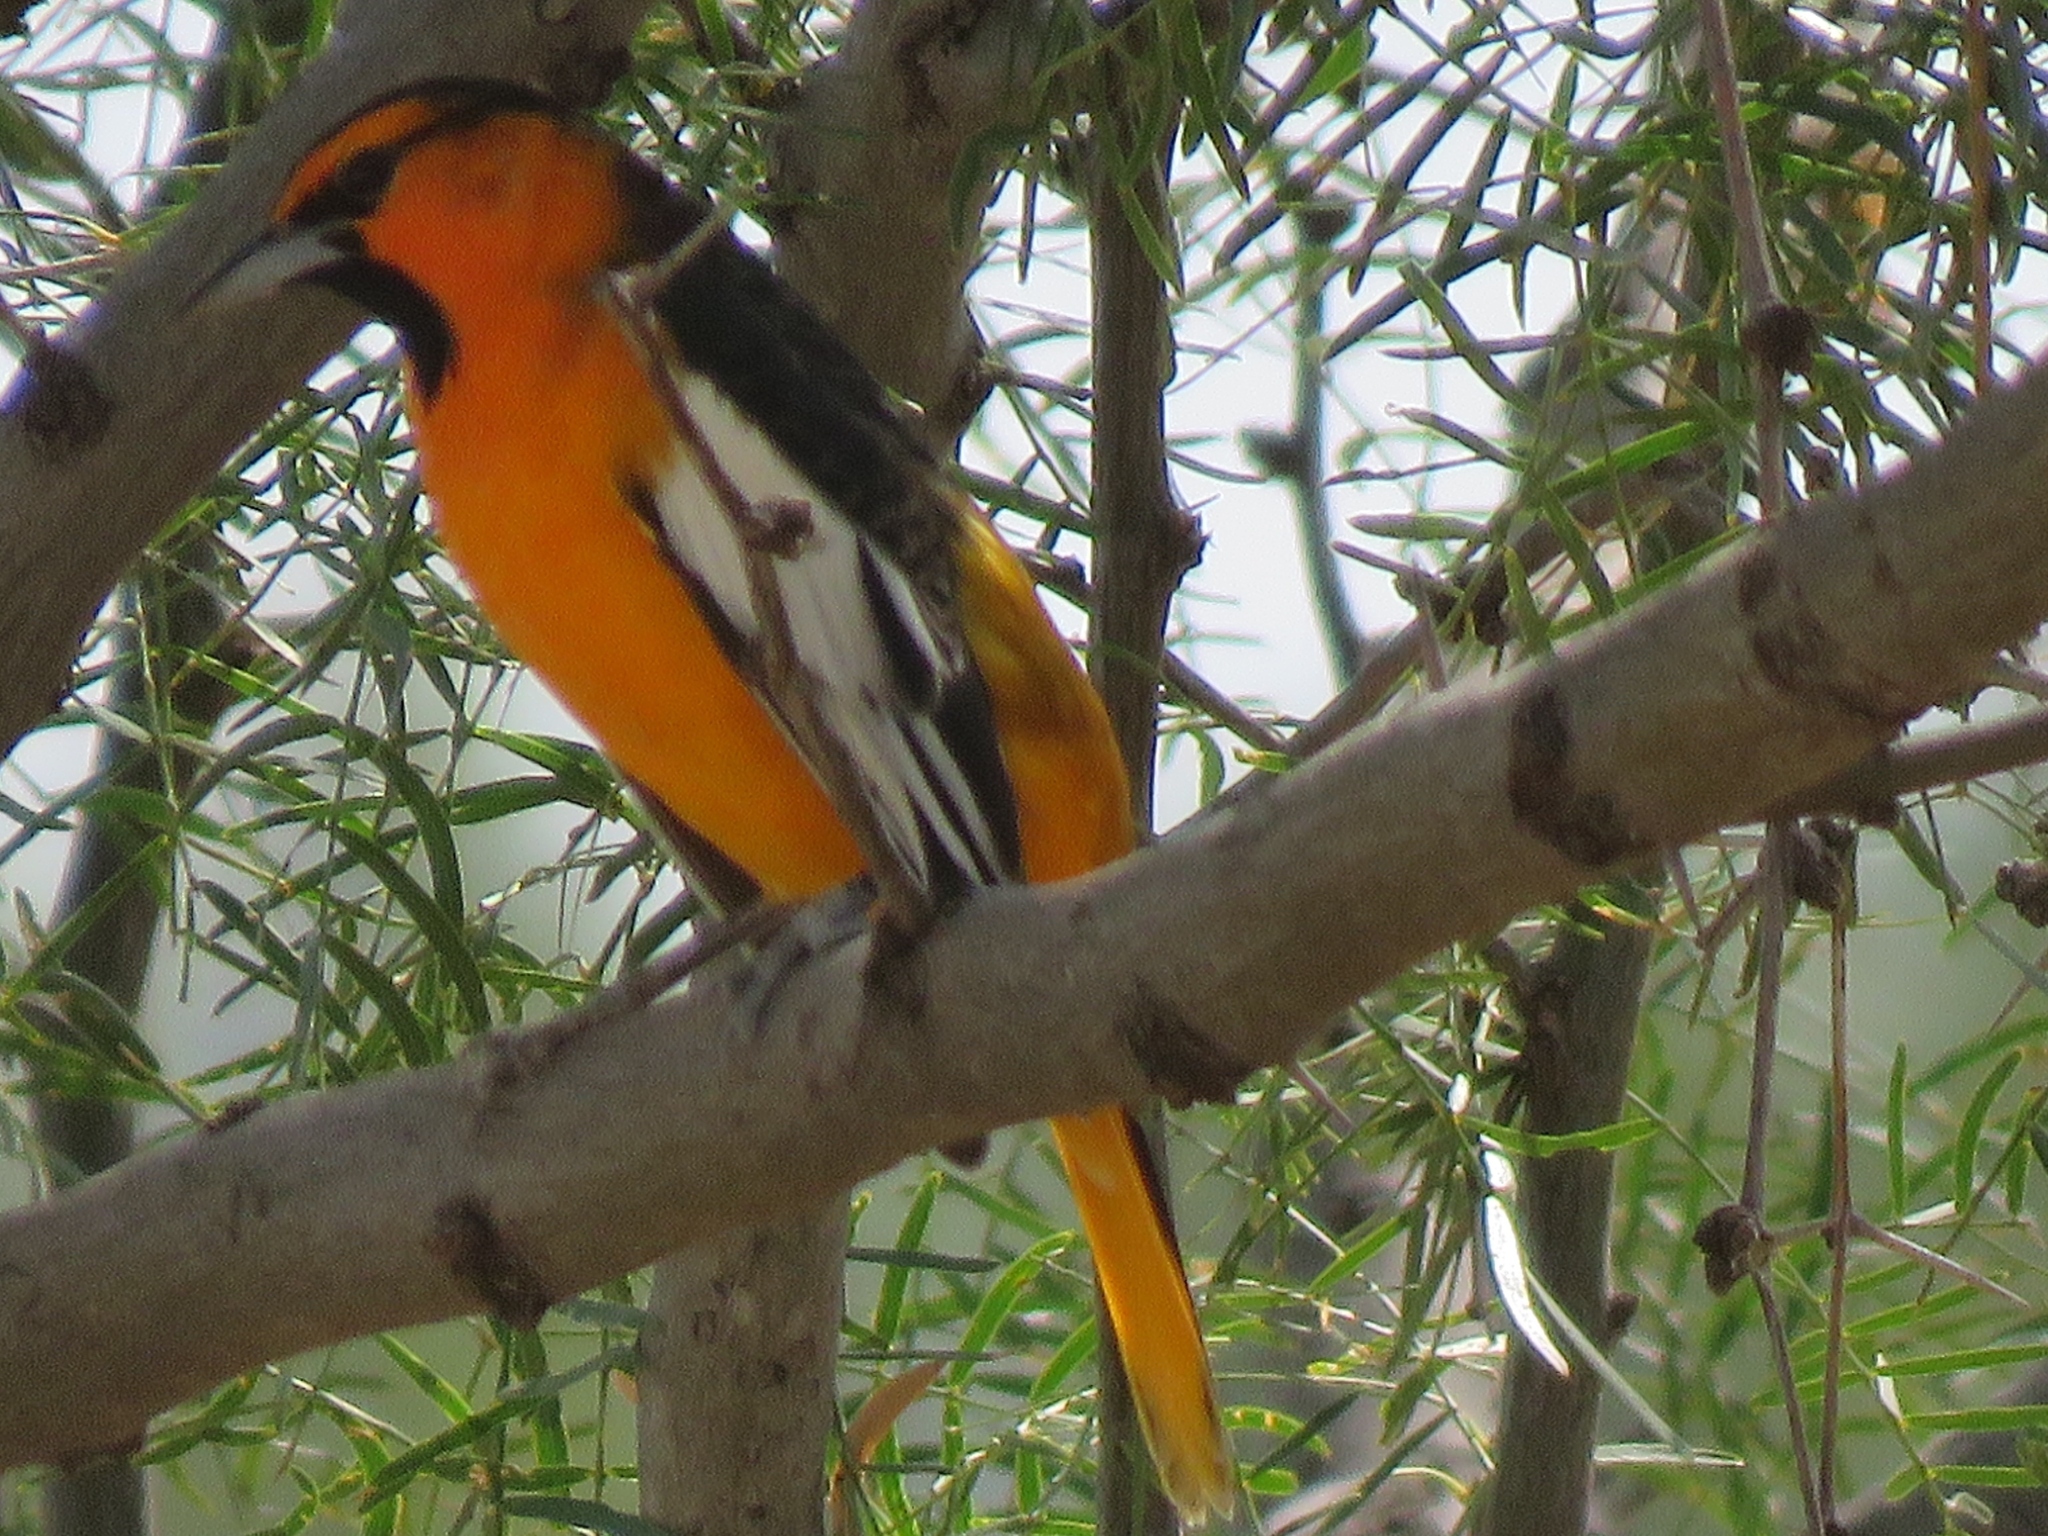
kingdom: Animalia
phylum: Chordata
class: Aves
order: Passeriformes
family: Icteridae
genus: Icterus
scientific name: Icterus bullockii
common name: Bullock's oriole
